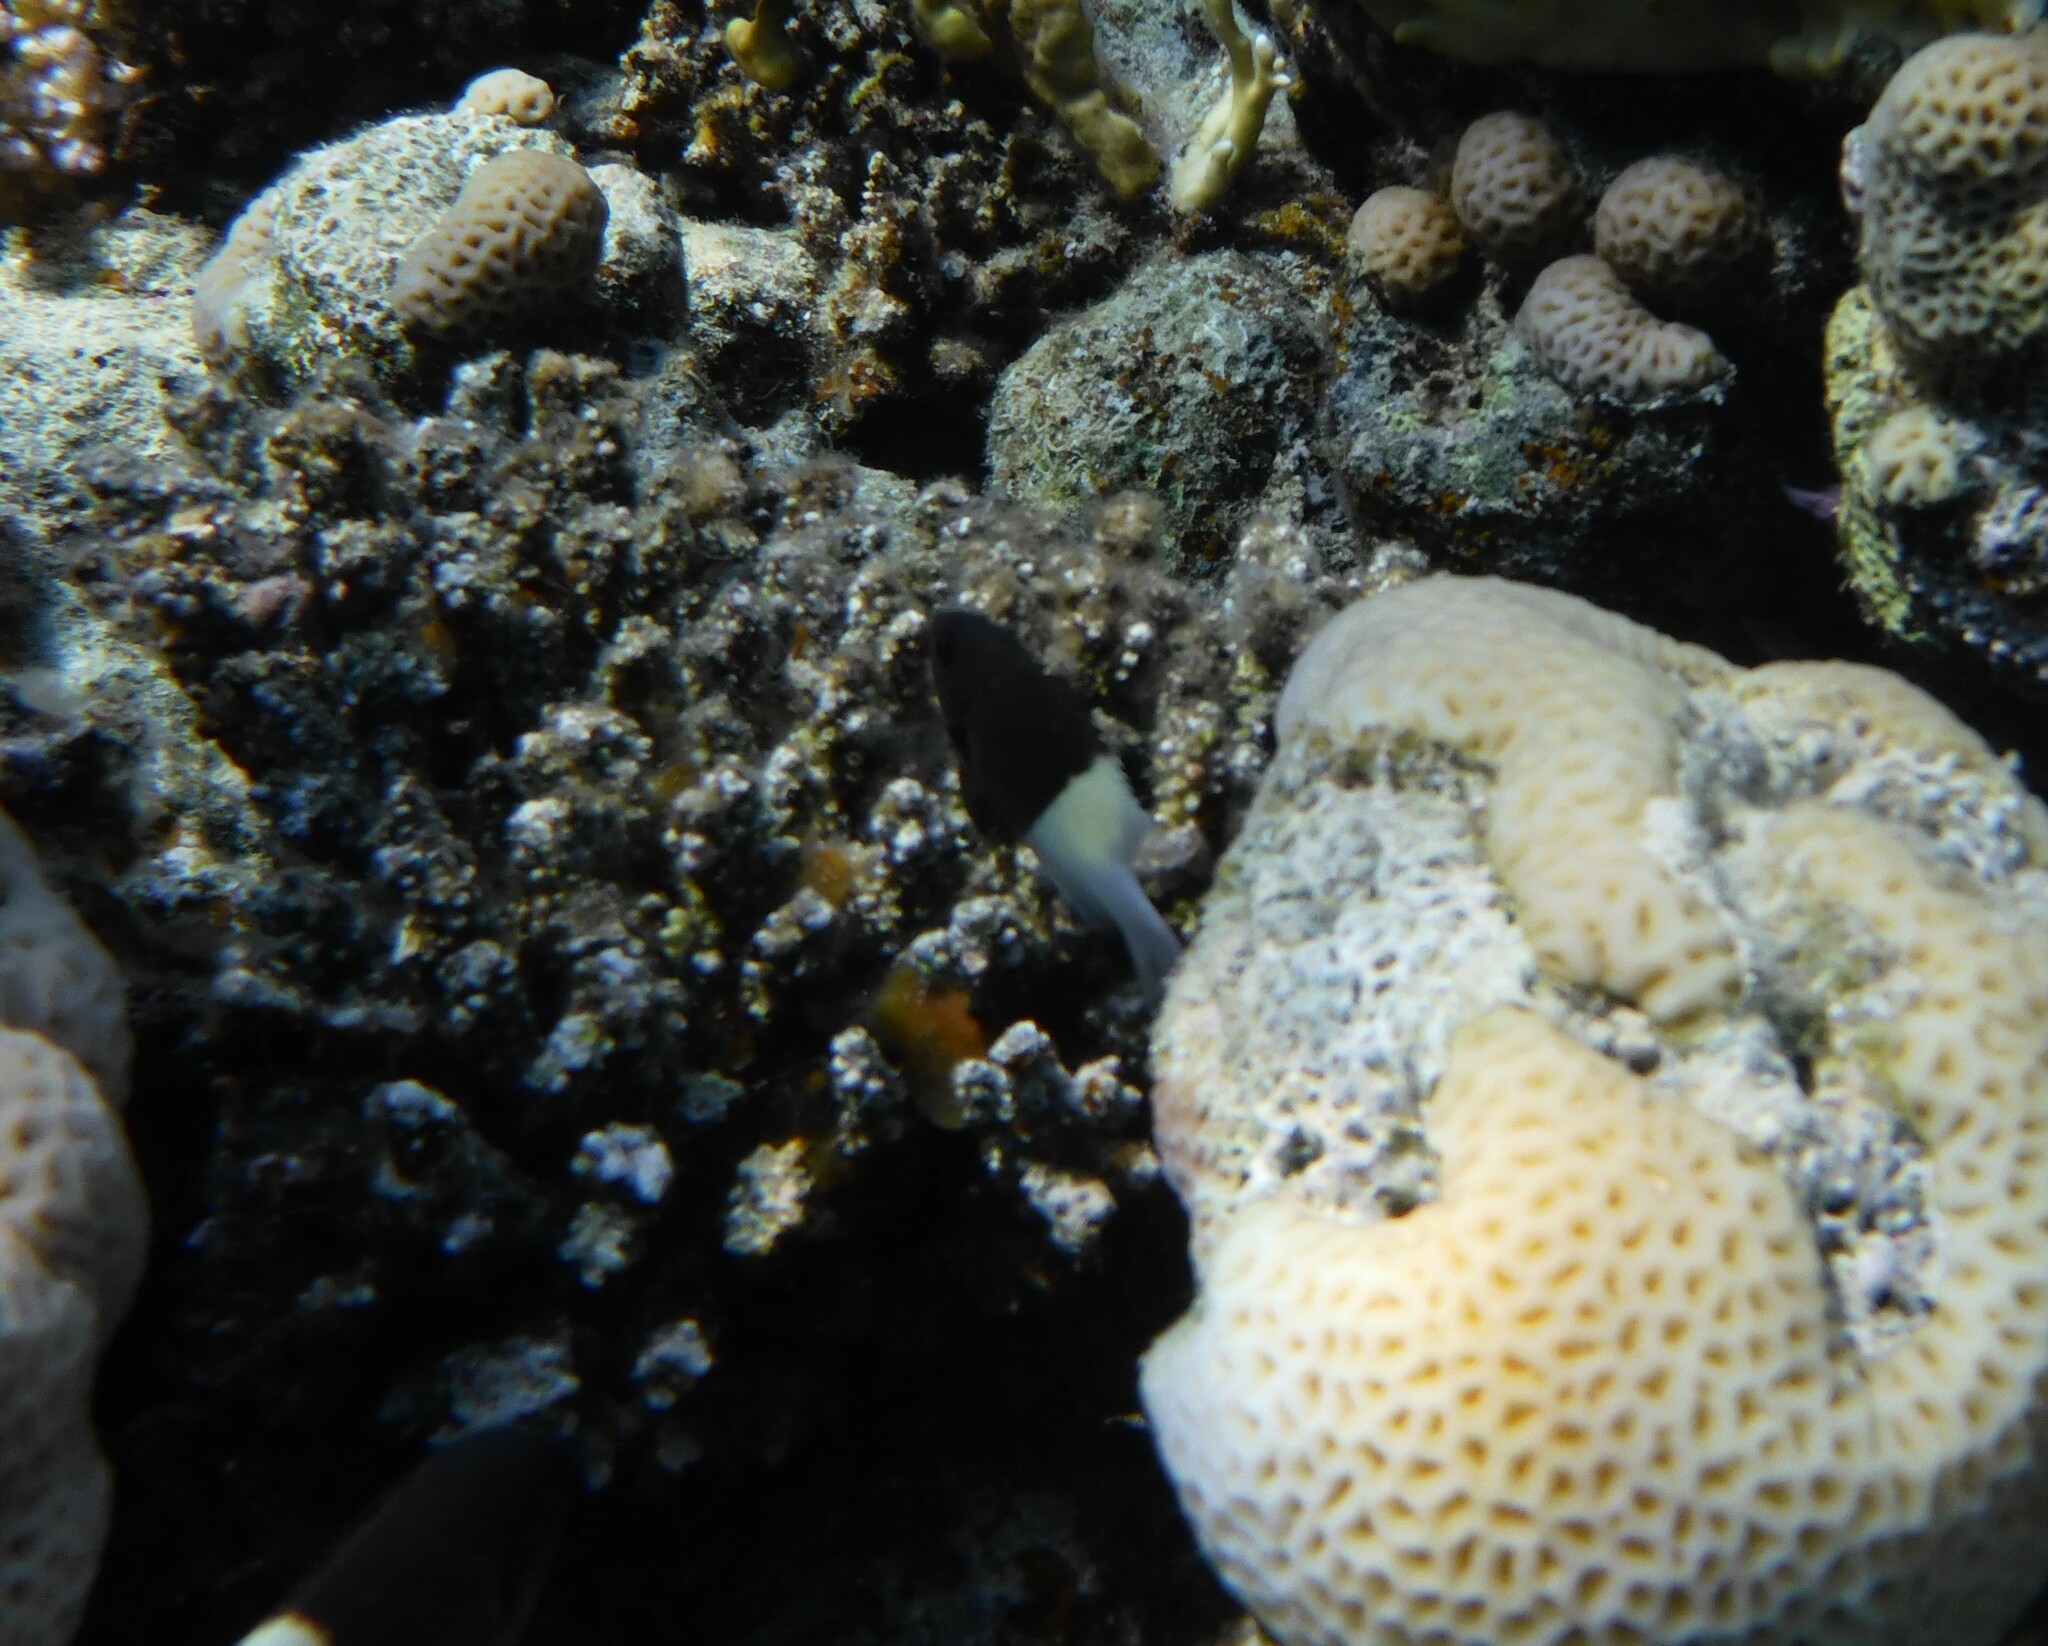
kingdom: Animalia
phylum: Chordata
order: Perciformes
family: Pomacentridae
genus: Chromis
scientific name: Chromis dimidiata
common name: Half-and-half chromis
